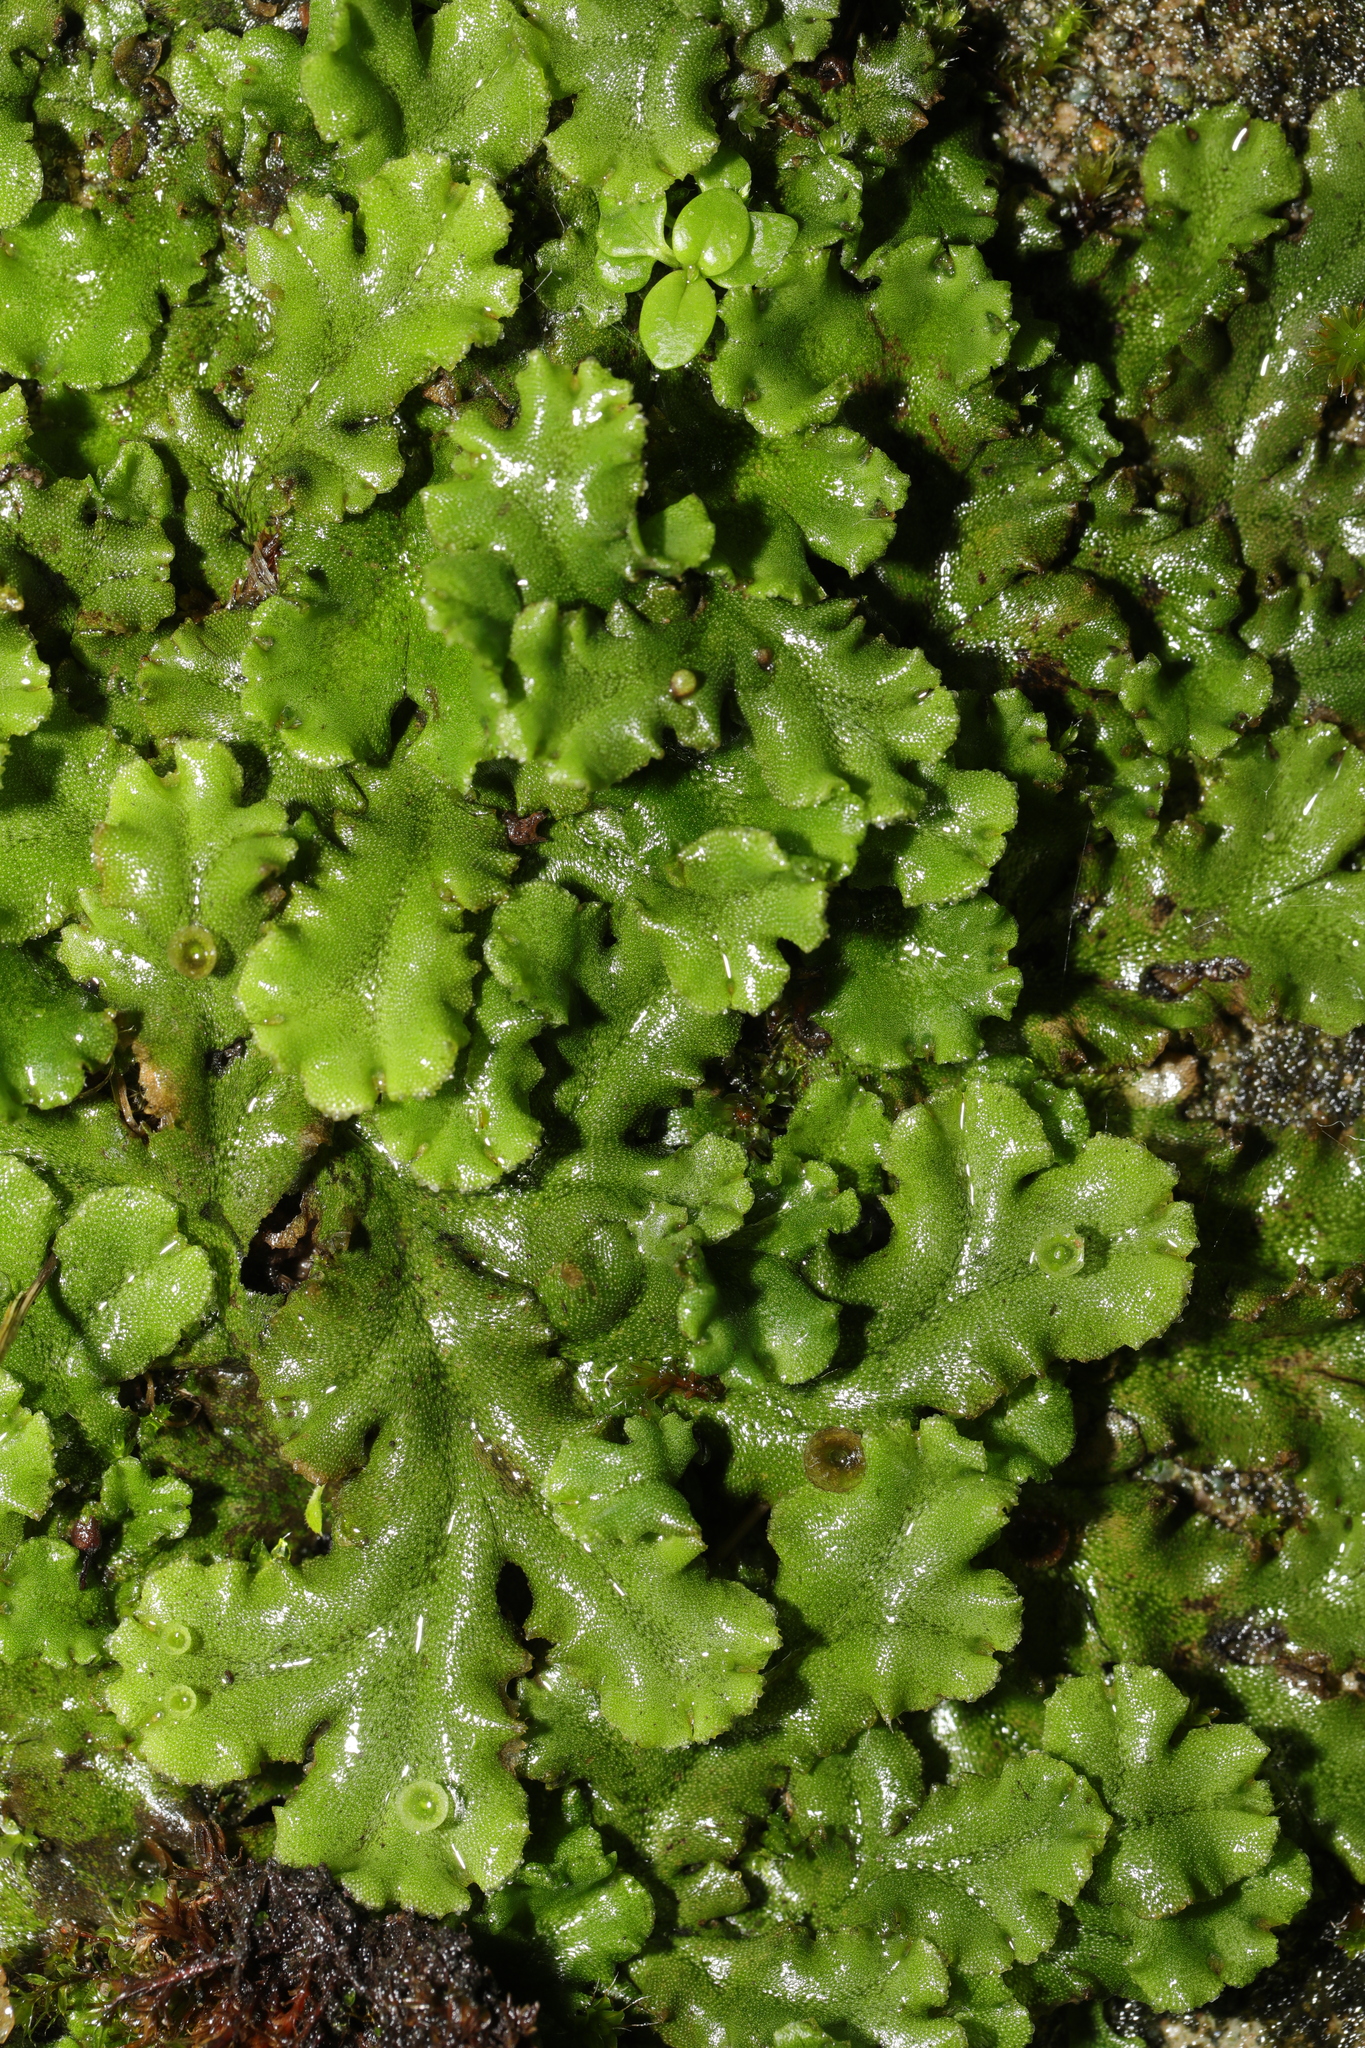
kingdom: Plantae
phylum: Marchantiophyta
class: Marchantiopsida
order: Marchantiales
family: Marchantiaceae
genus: Marchantia
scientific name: Marchantia polymorpha
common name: Common liverwort
